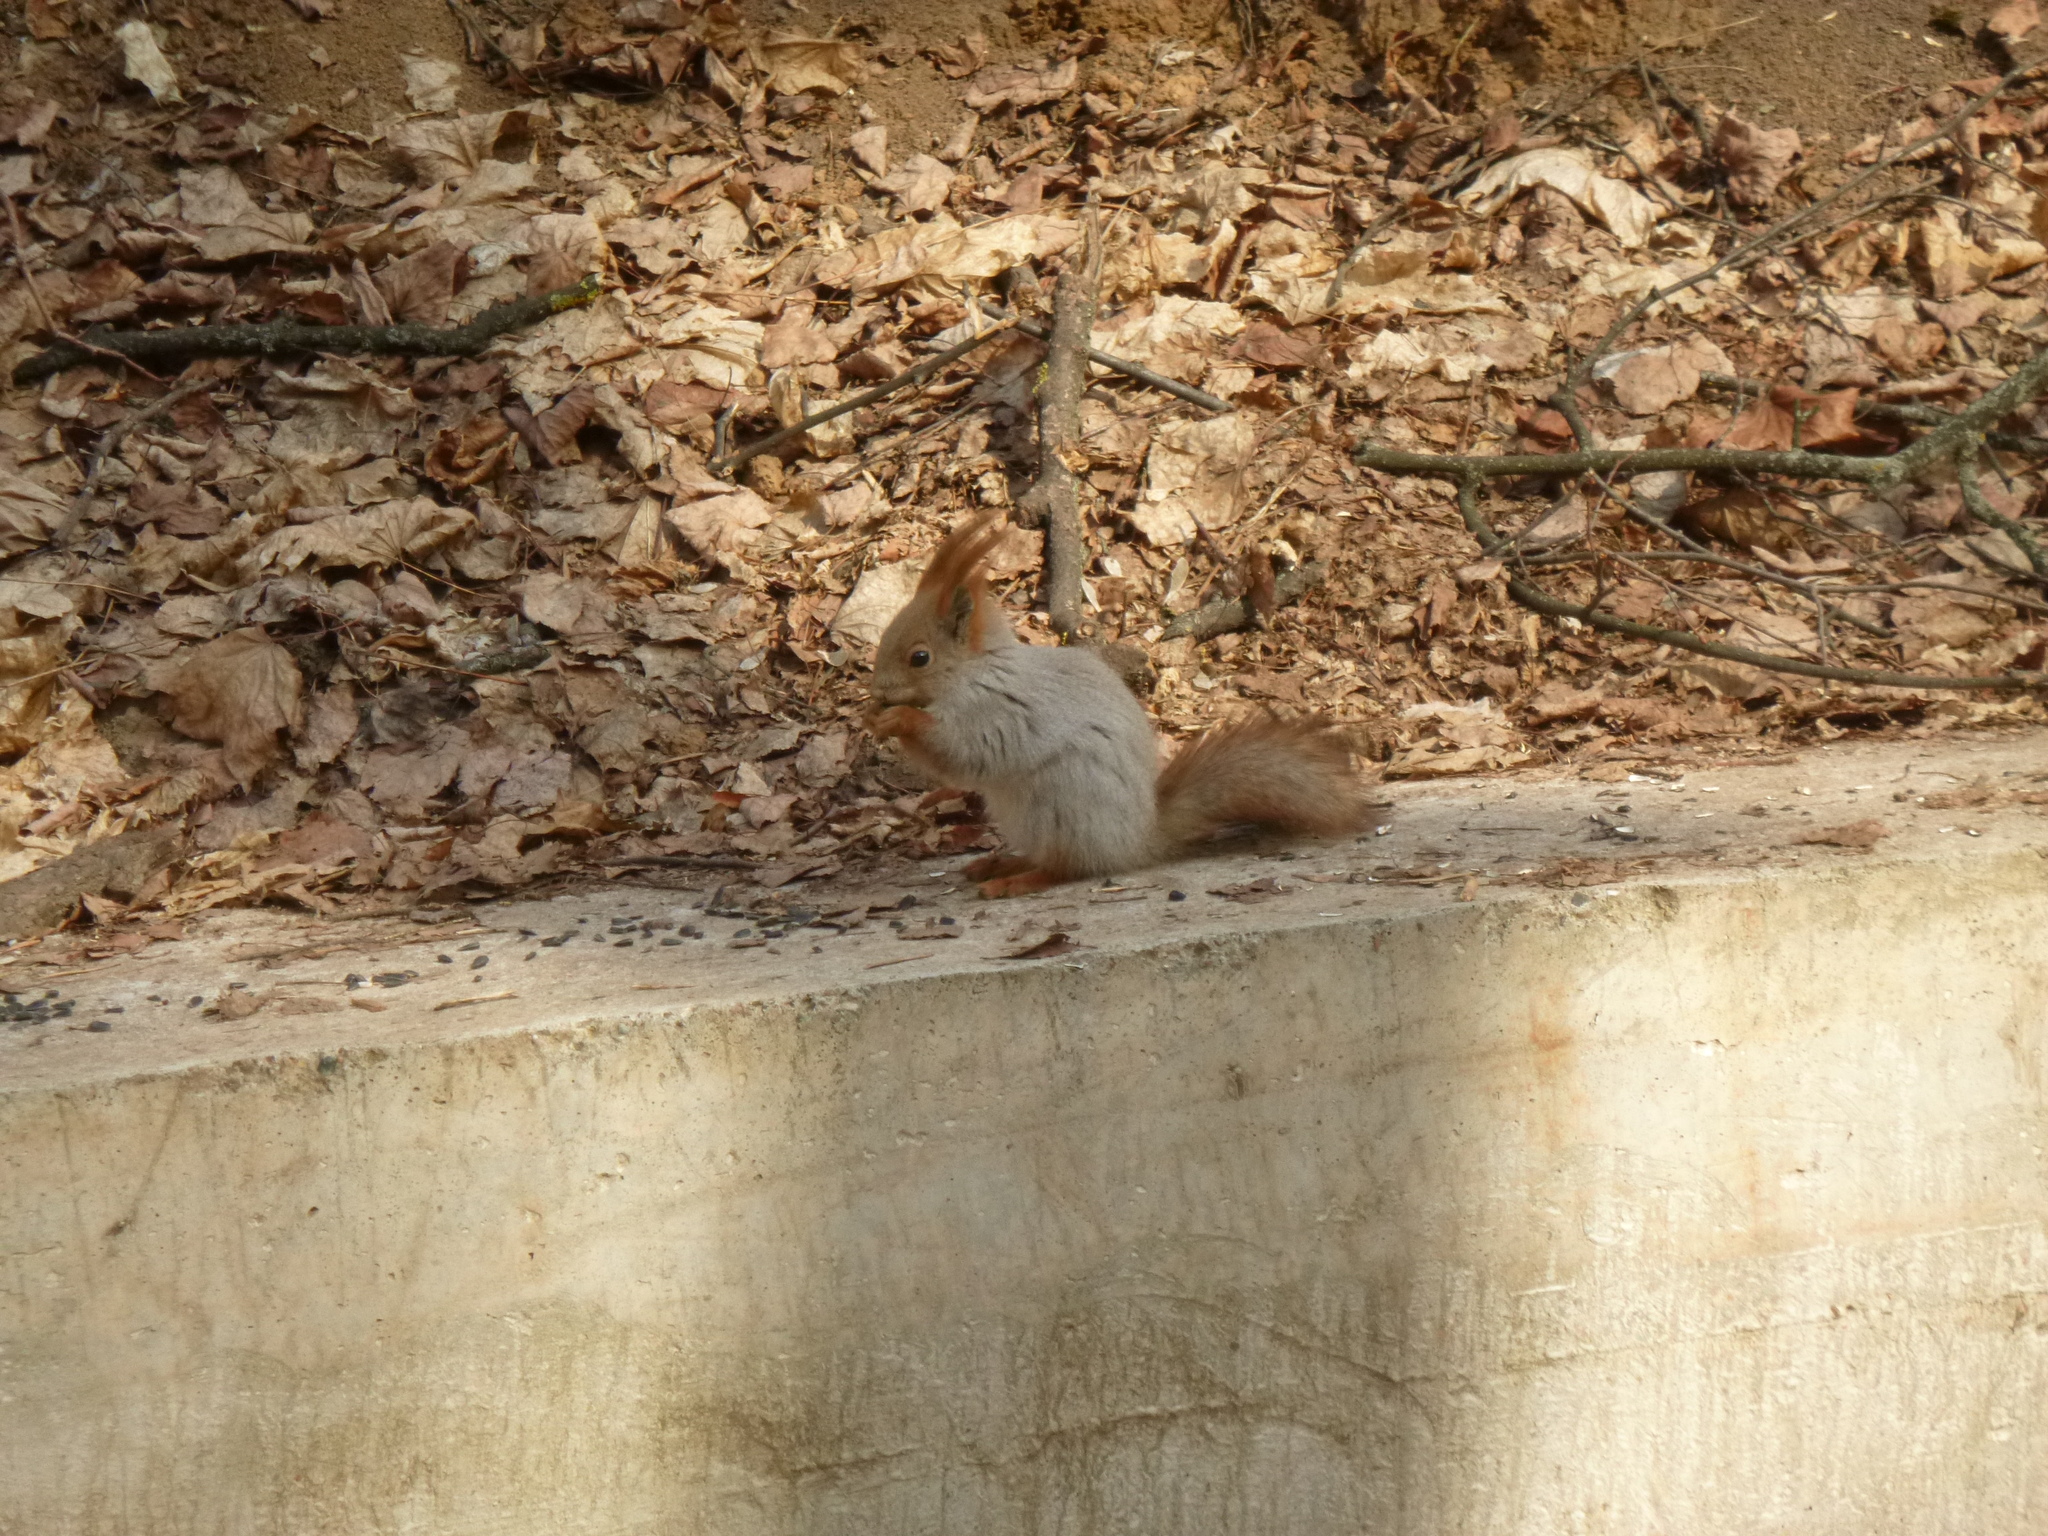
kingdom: Animalia
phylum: Chordata
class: Mammalia
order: Rodentia
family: Sciuridae
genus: Sciurus
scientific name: Sciurus vulgaris
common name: Eurasian red squirrel
